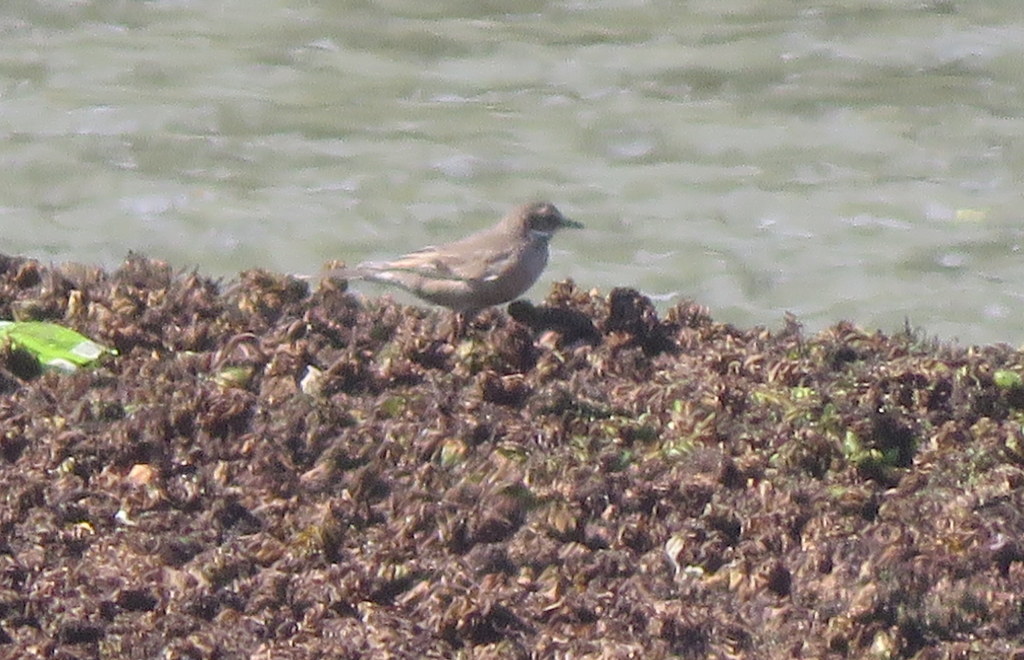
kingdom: Animalia
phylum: Chordata
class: Aves
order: Passeriformes
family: Furnariidae
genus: Cinclodes
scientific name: Cinclodes fuscus
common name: Buff-winged cinclodes
